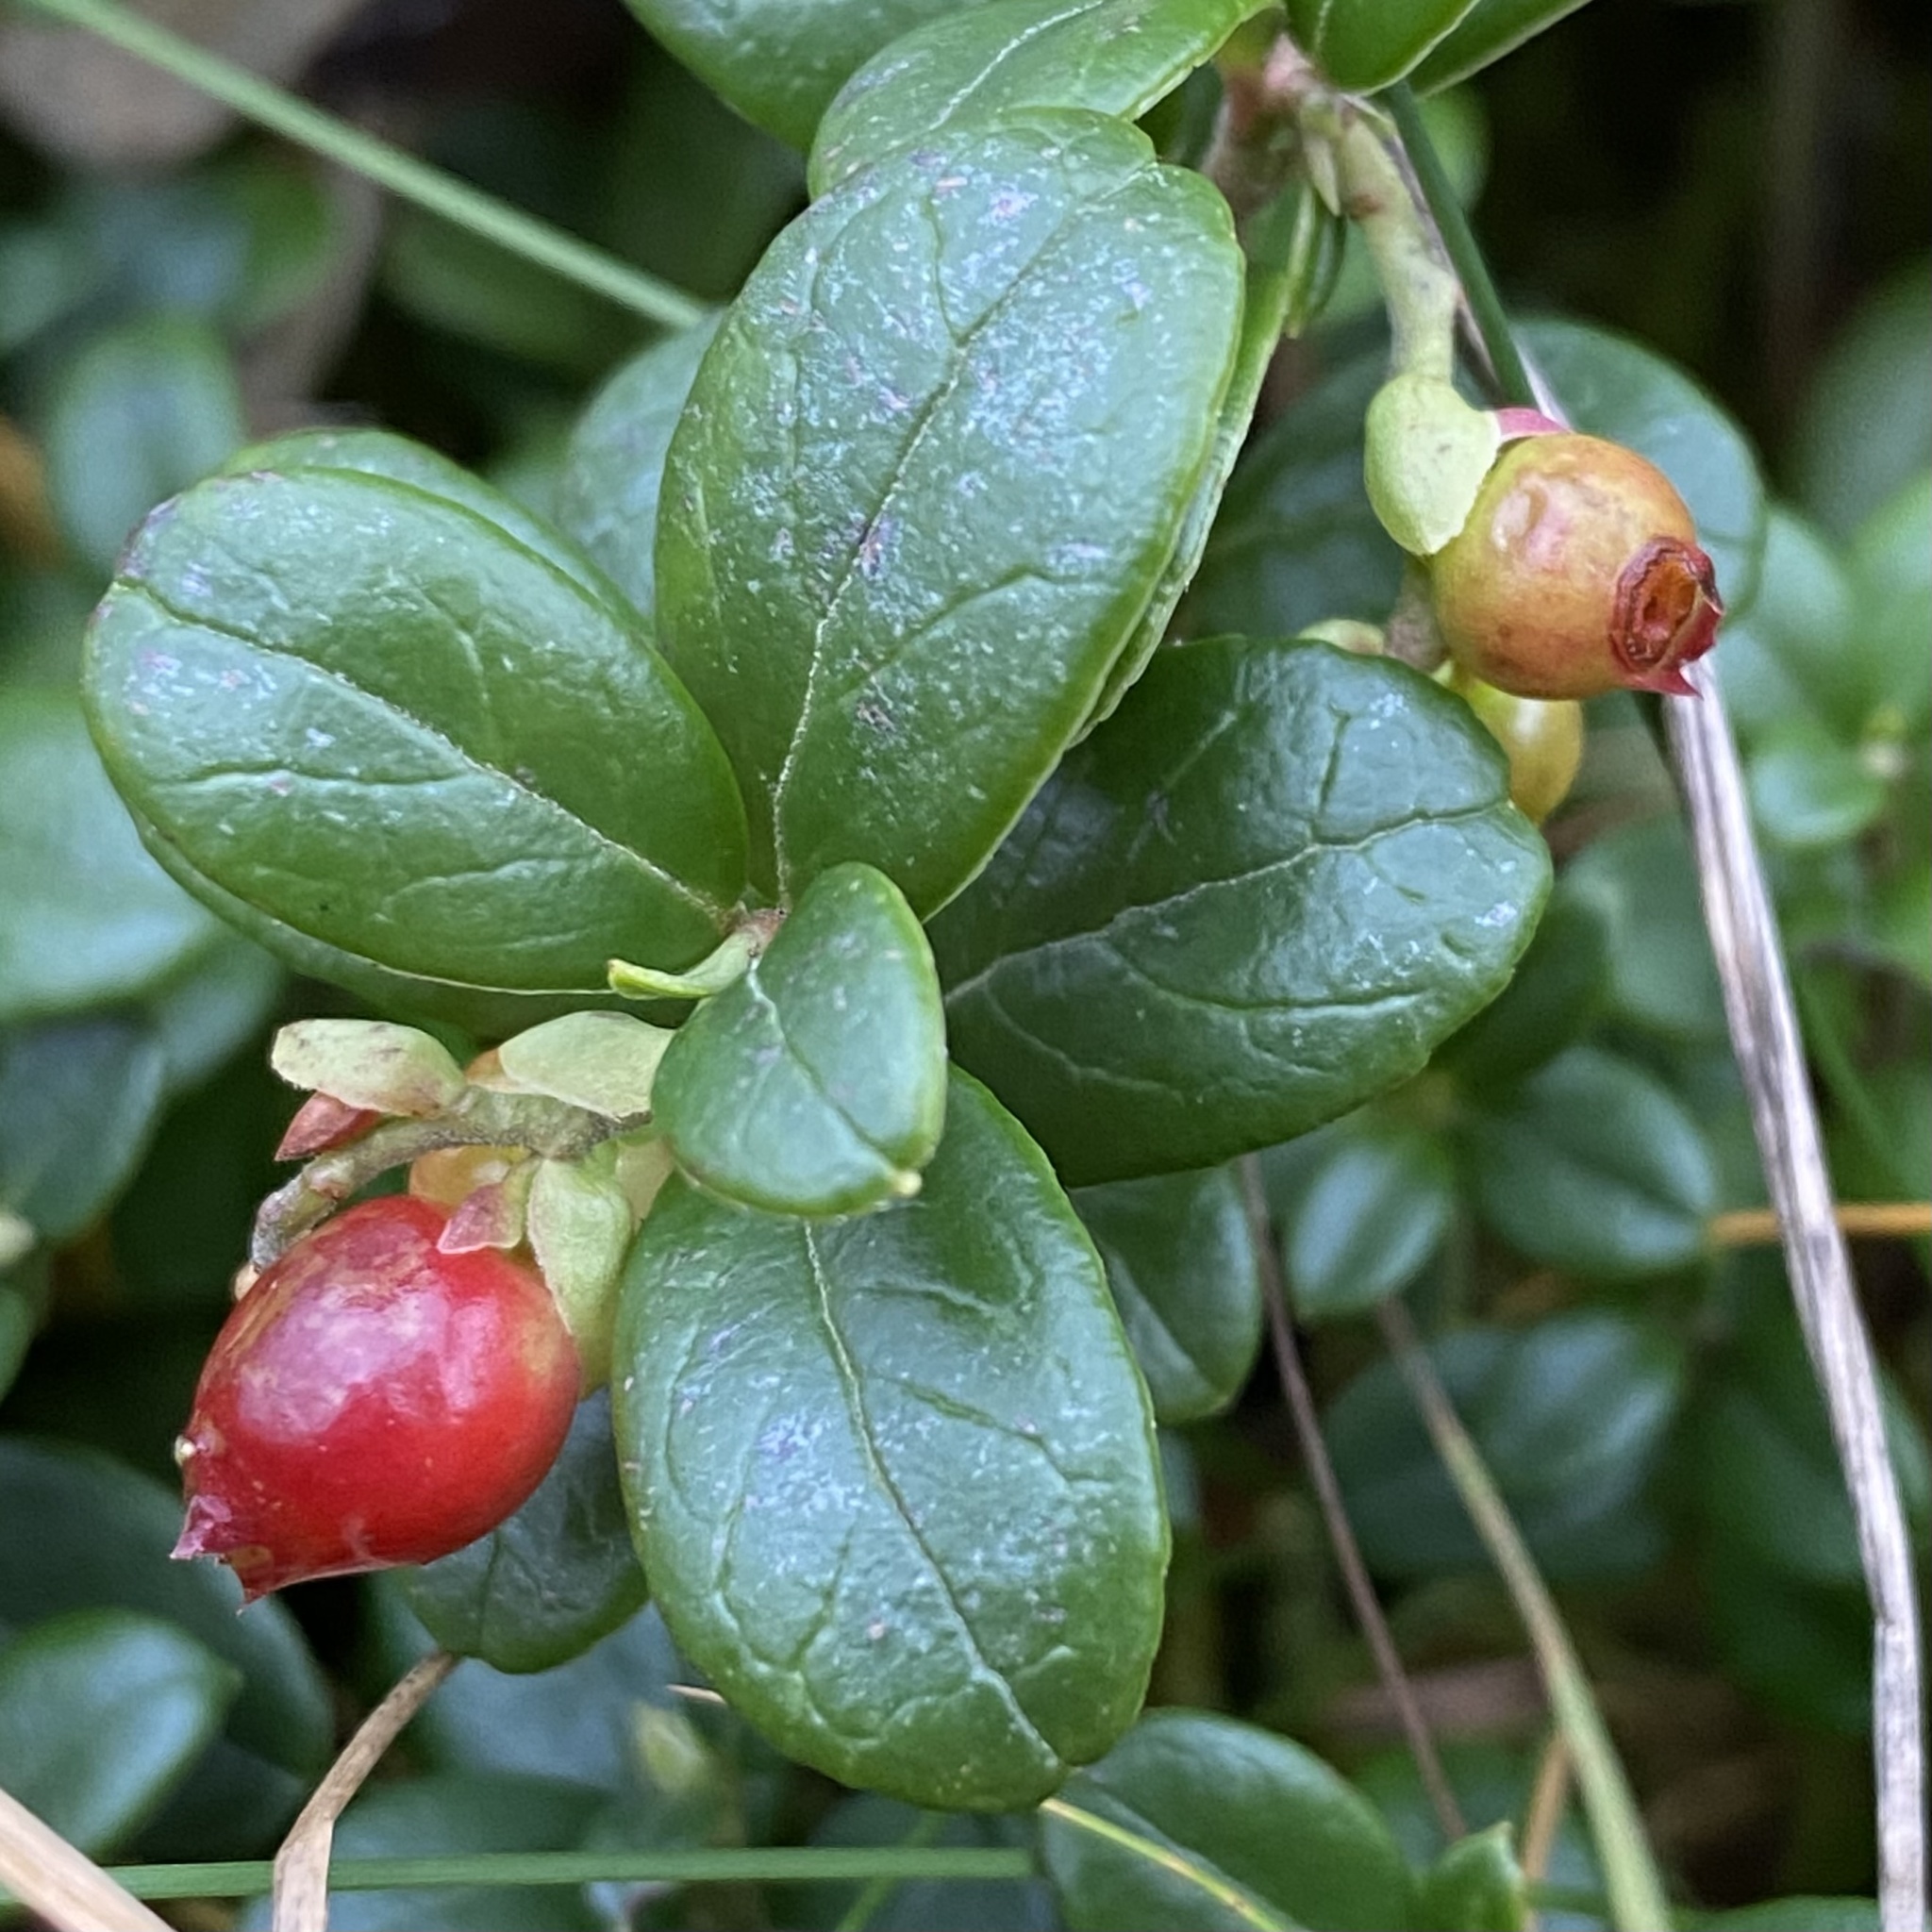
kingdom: Plantae
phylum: Tracheophyta
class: Magnoliopsida
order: Ericales
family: Ericaceae
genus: Vaccinium
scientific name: Vaccinium vitis-idaea
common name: Cowberry
